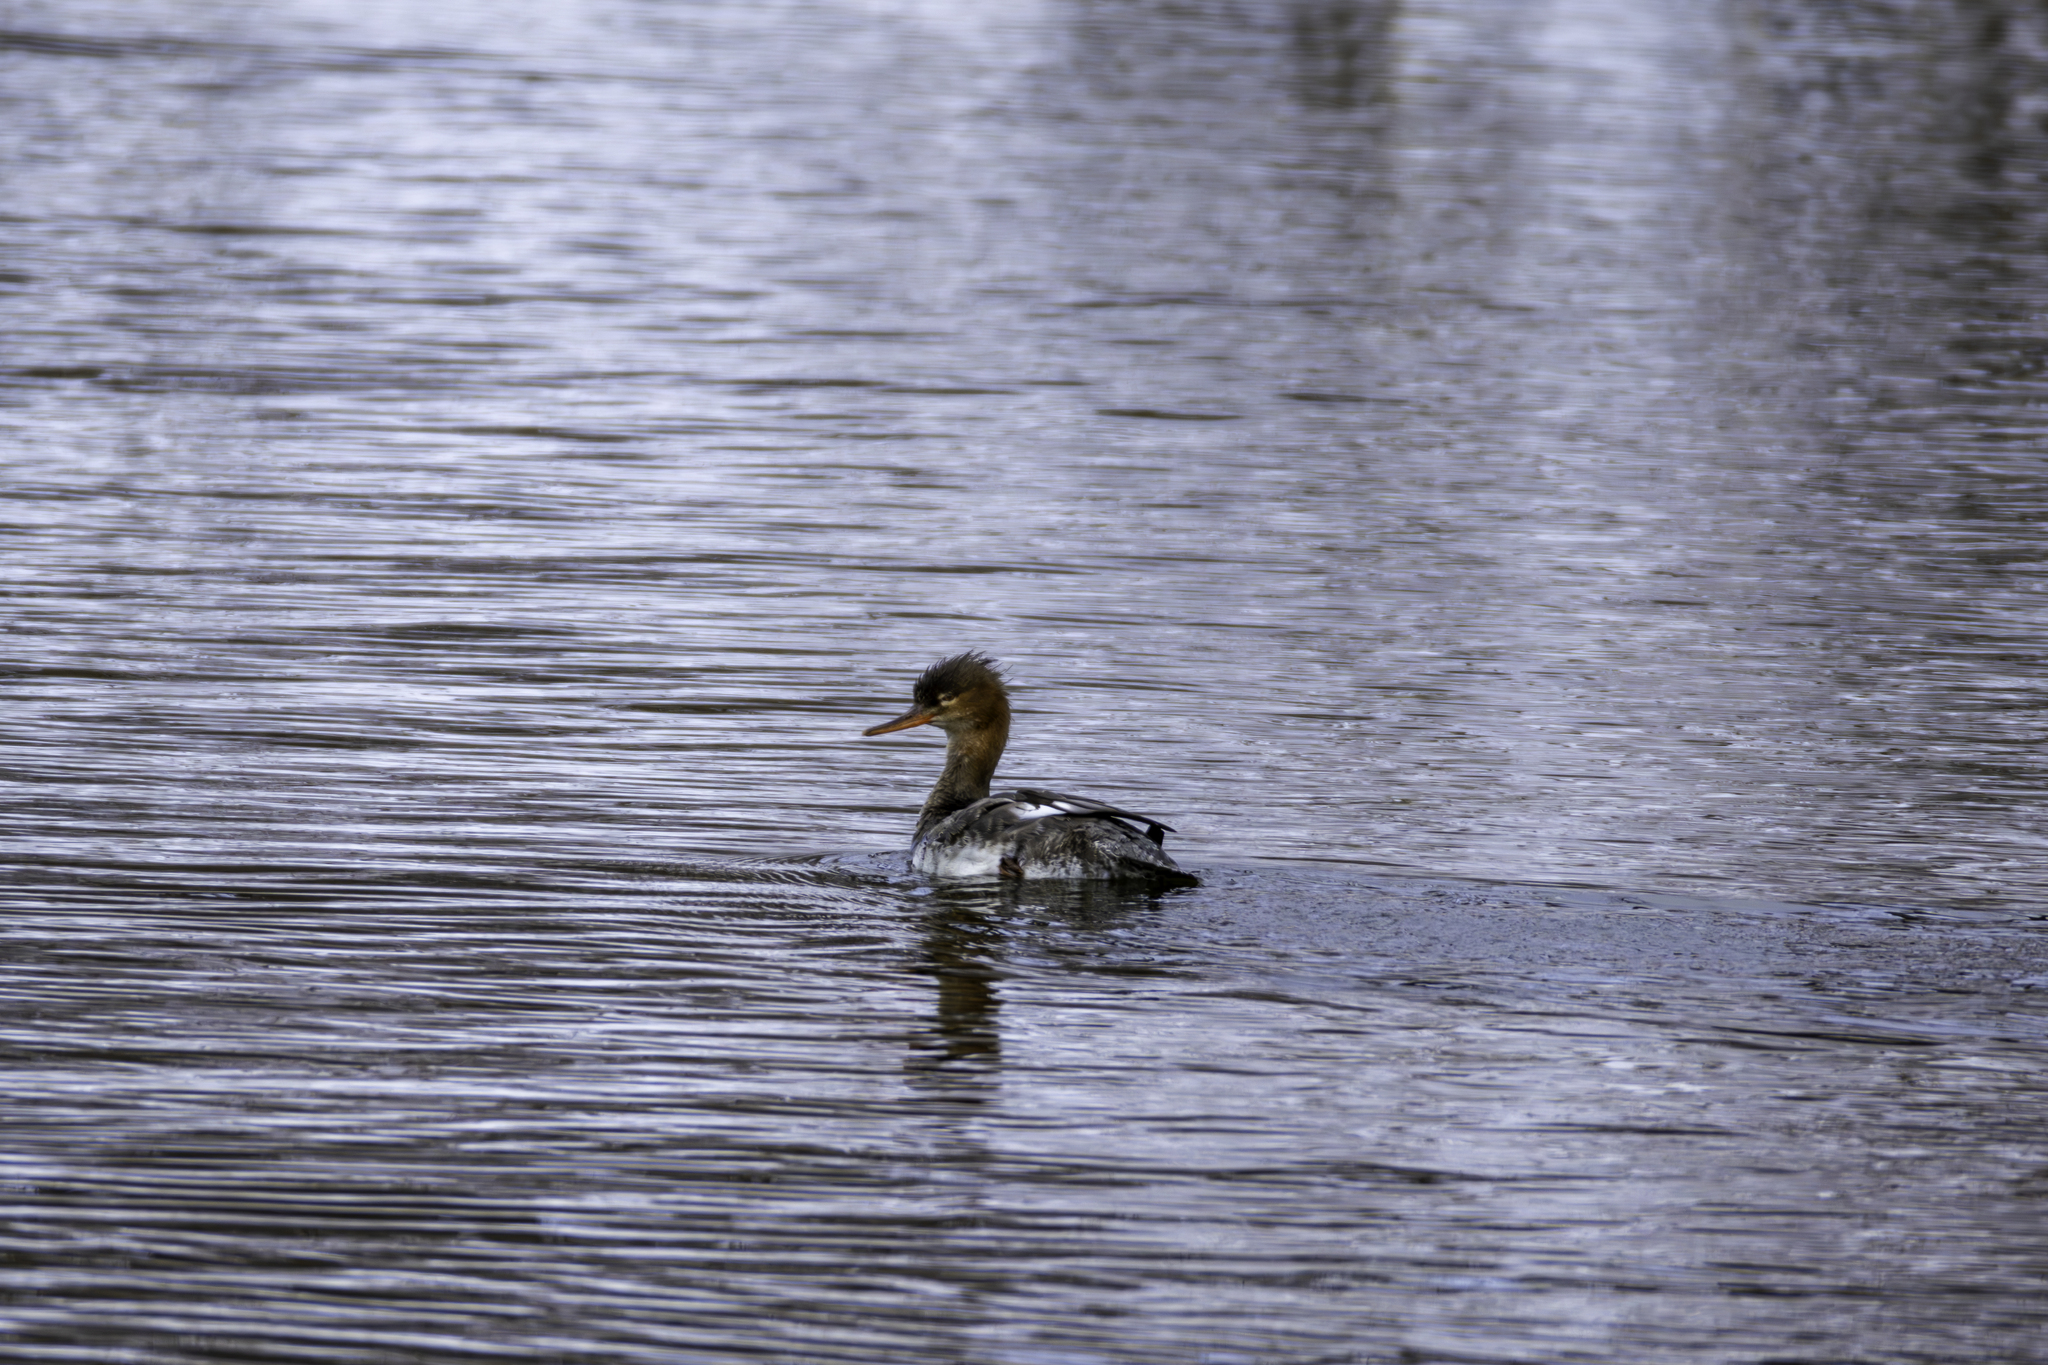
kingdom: Animalia
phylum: Chordata
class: Aves
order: Anseriformes
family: Anatidae
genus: Mergus
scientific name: Mergus serrator
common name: Red-breasted merganser
